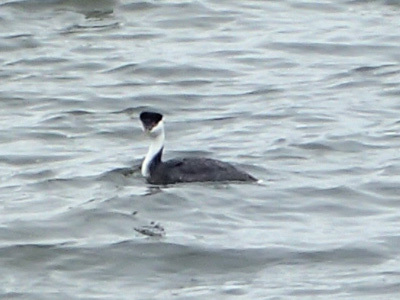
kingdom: Animalia
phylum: Chordata
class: Aves
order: Podicipediformes
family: Podicipedidae
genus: Aechmophorus
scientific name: Aechmophorus occidentalis
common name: Western grebe
